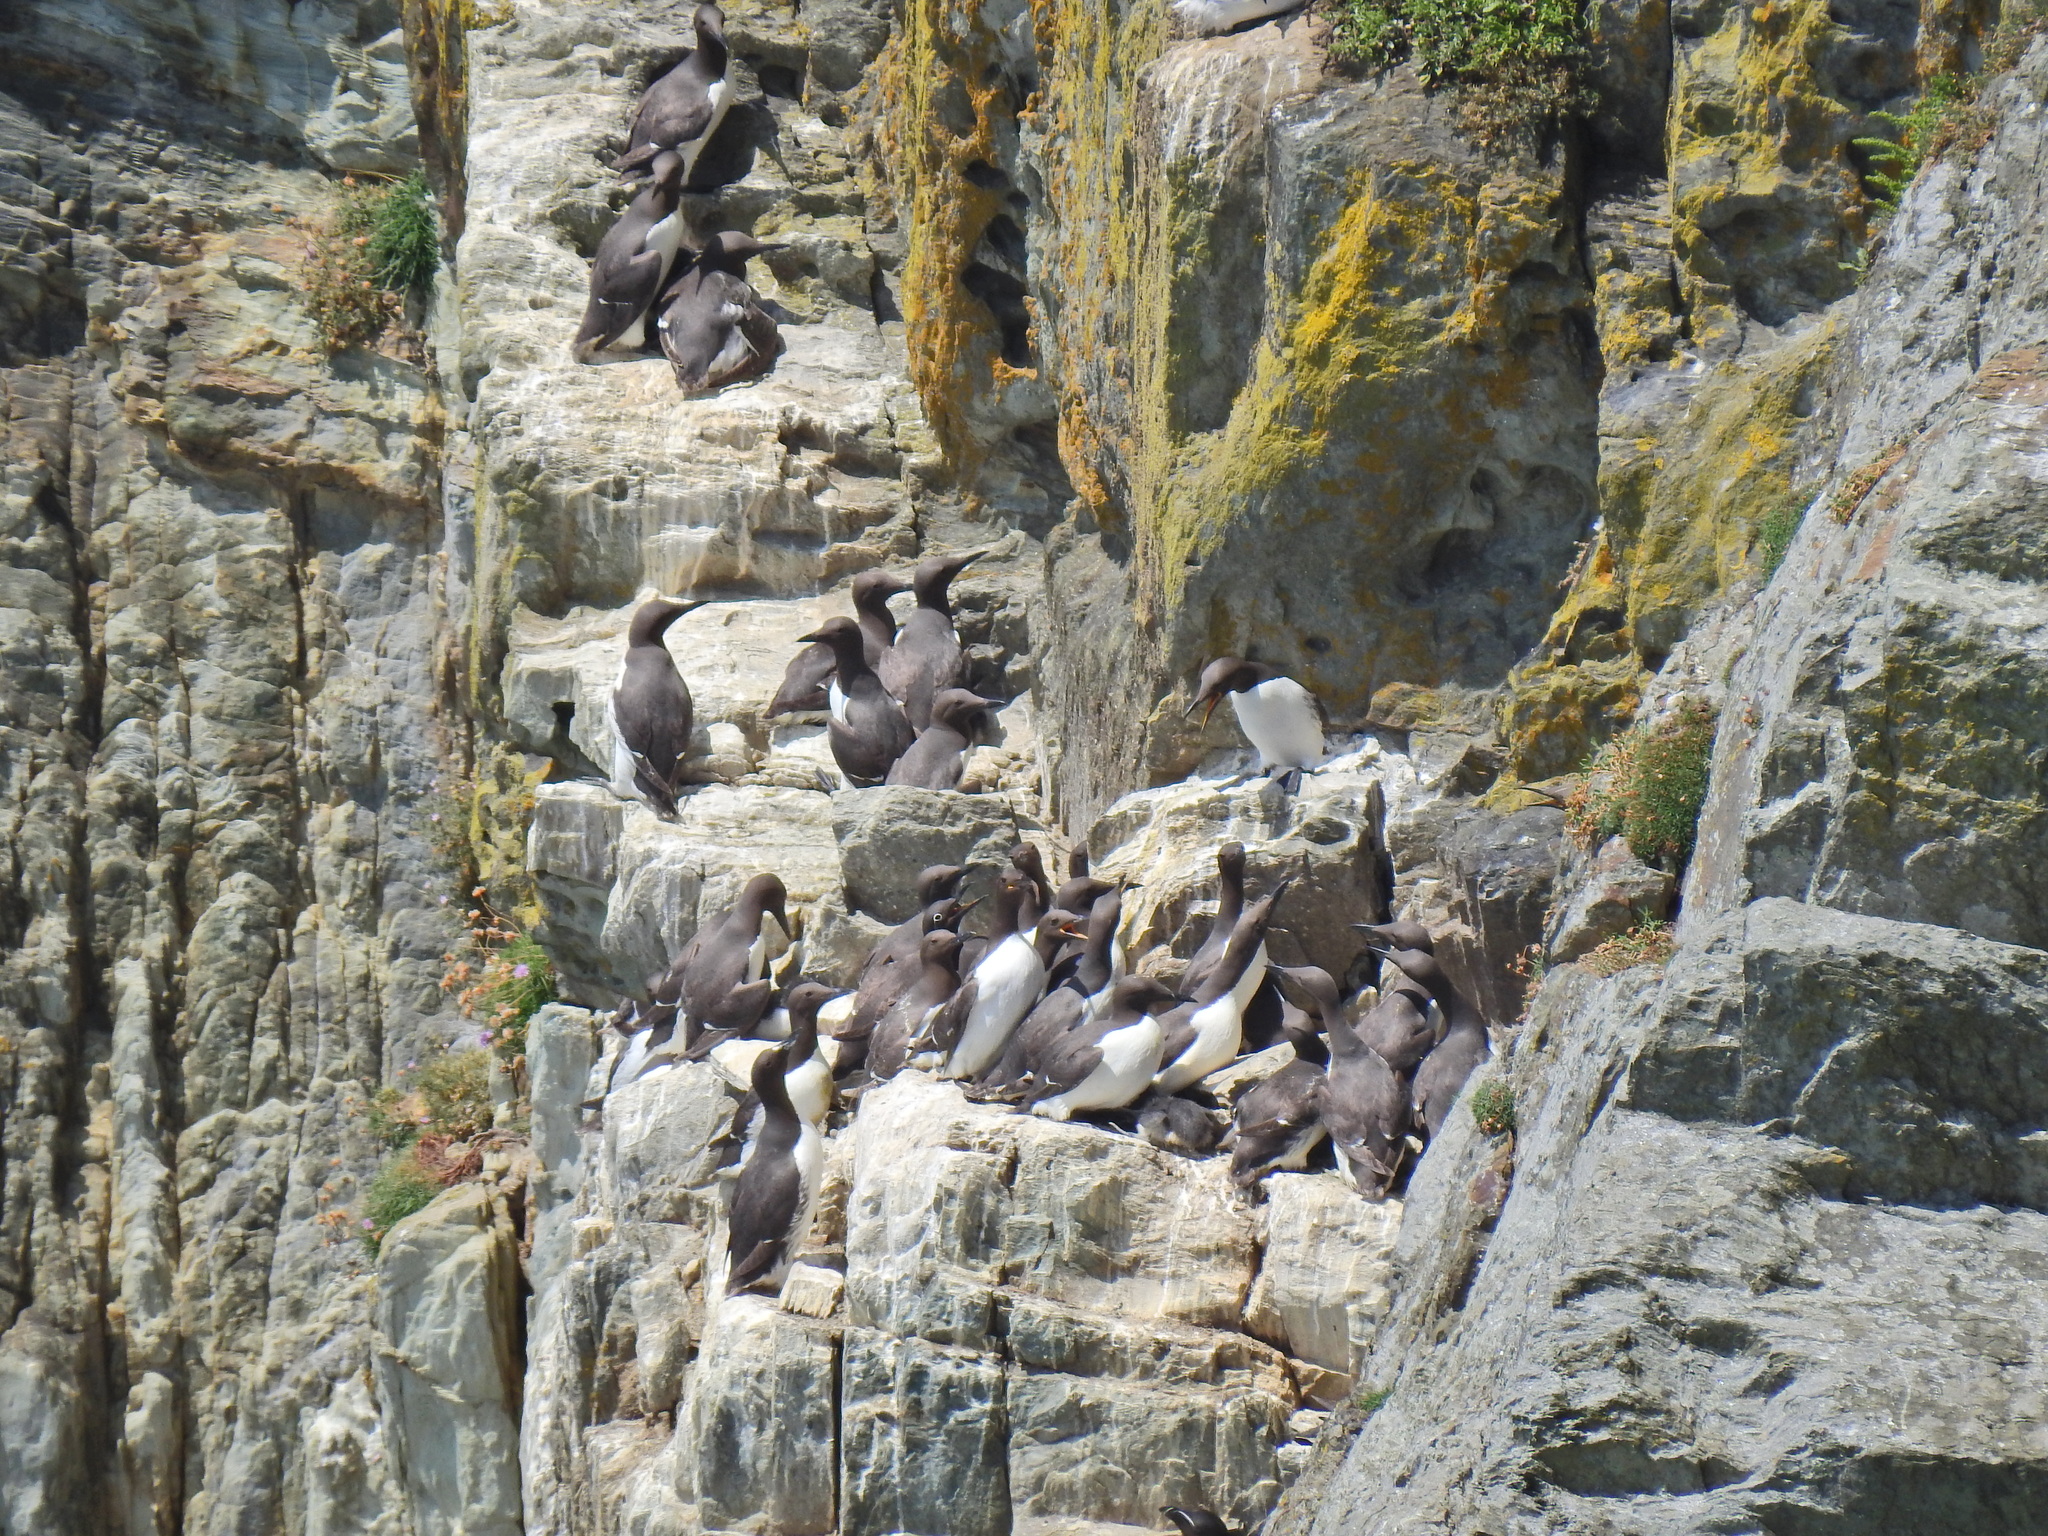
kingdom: Animalia
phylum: Chordata
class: Aves
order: Charadriiformes
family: Alcidae
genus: Uria
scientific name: Uria aalge
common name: Common murre
